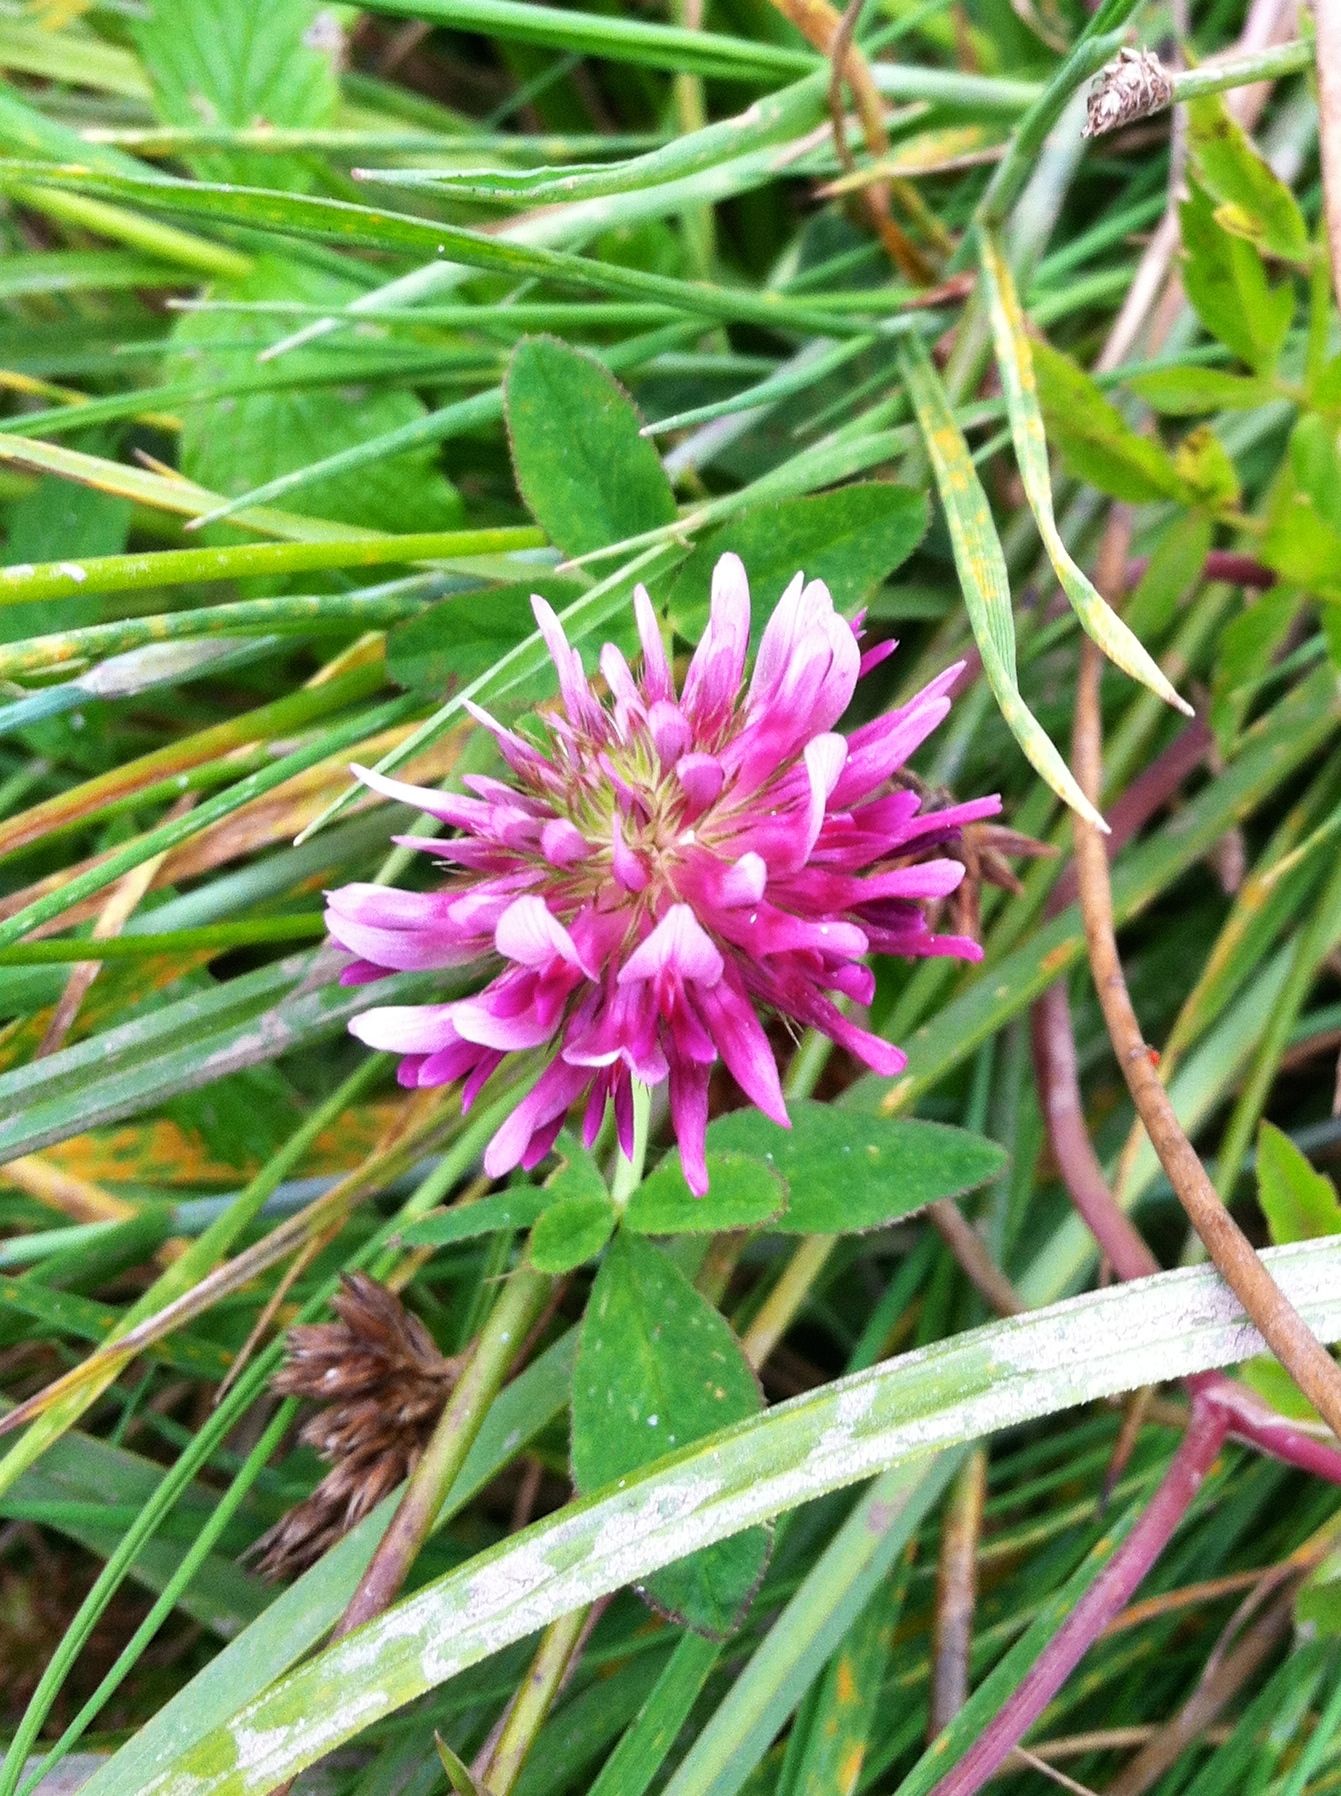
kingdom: Plantae
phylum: Tracheophyta
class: Magnoliopsida
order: Fabales
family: Fabaceae
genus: Trifolium
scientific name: Trifolium wormskioldii
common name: Springbank clover
